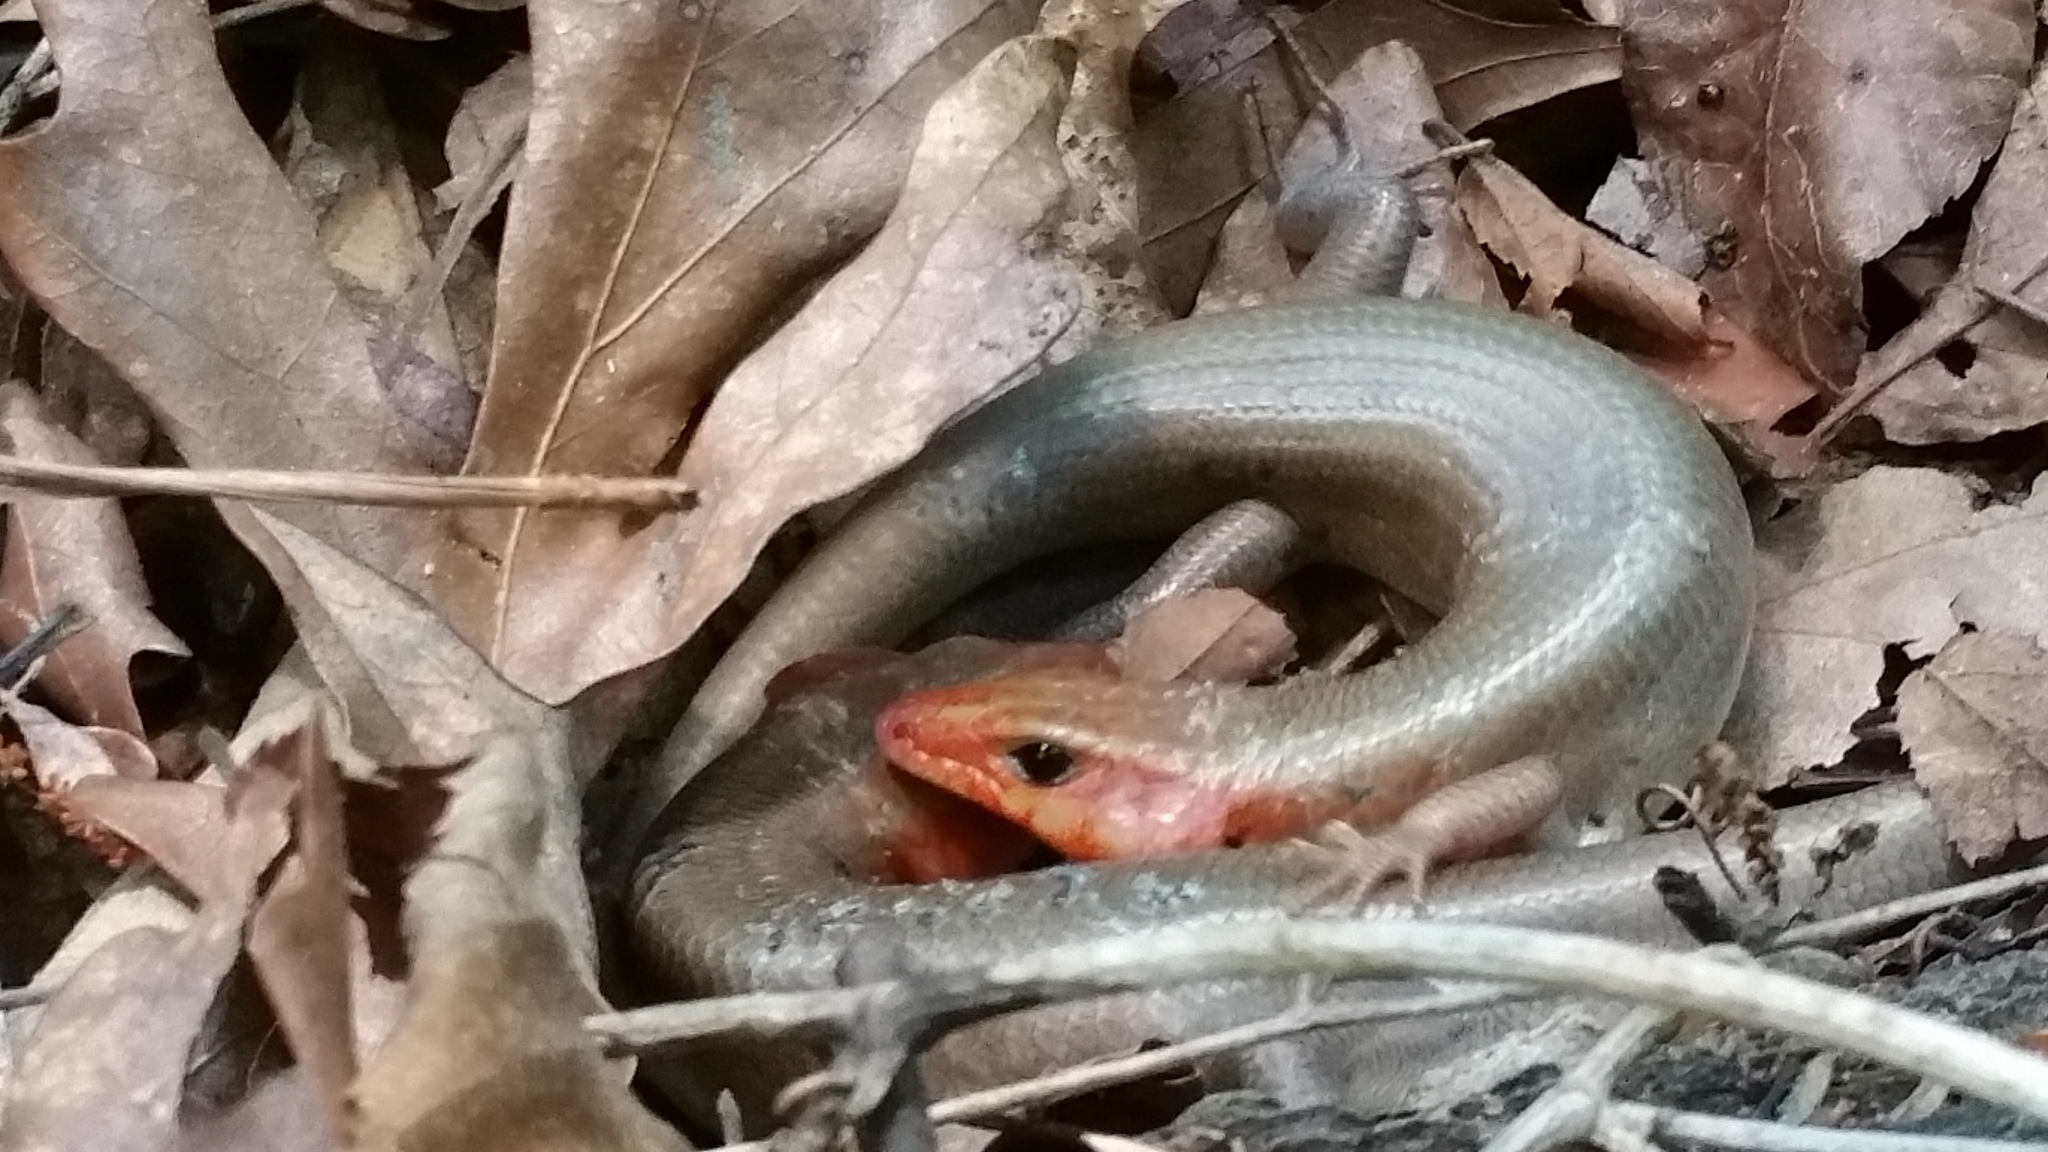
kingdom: Animalia
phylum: Chordata
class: Squamata
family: Scincidae
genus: Plestiodon
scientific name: Plestiodon laticeps
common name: Broadhead skink
